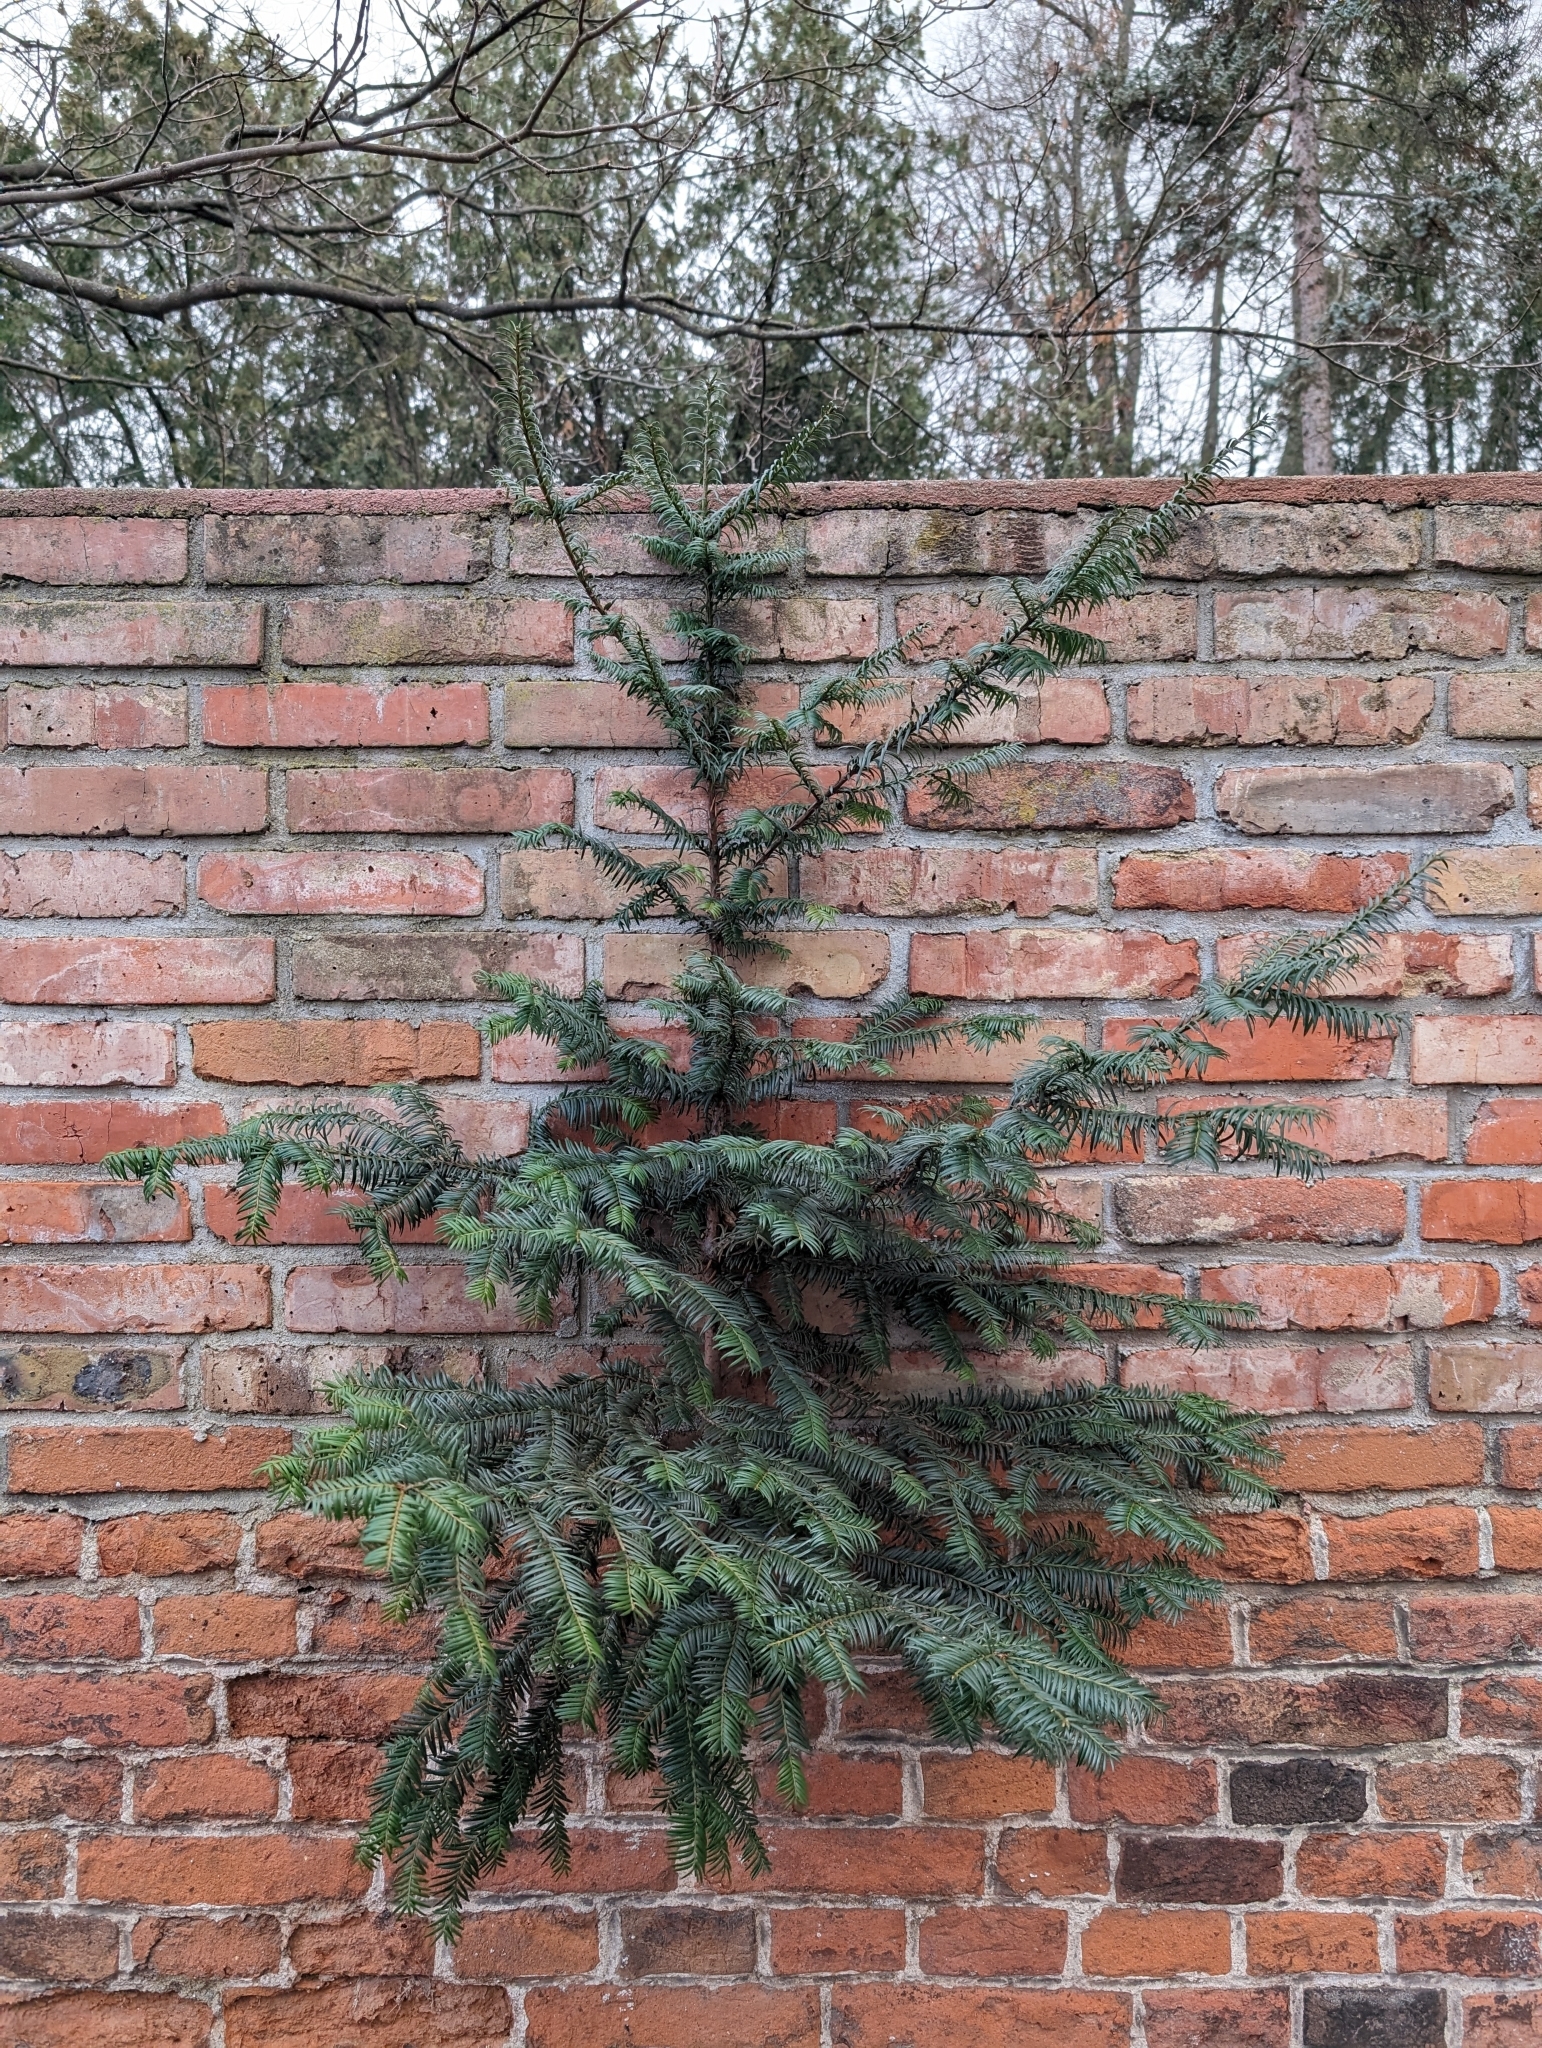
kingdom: Plantae
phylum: Tracheophyta
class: Pinopsida
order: Pinales
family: Taxaceae
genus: Taxus
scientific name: Taxus baccata
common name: Yew
